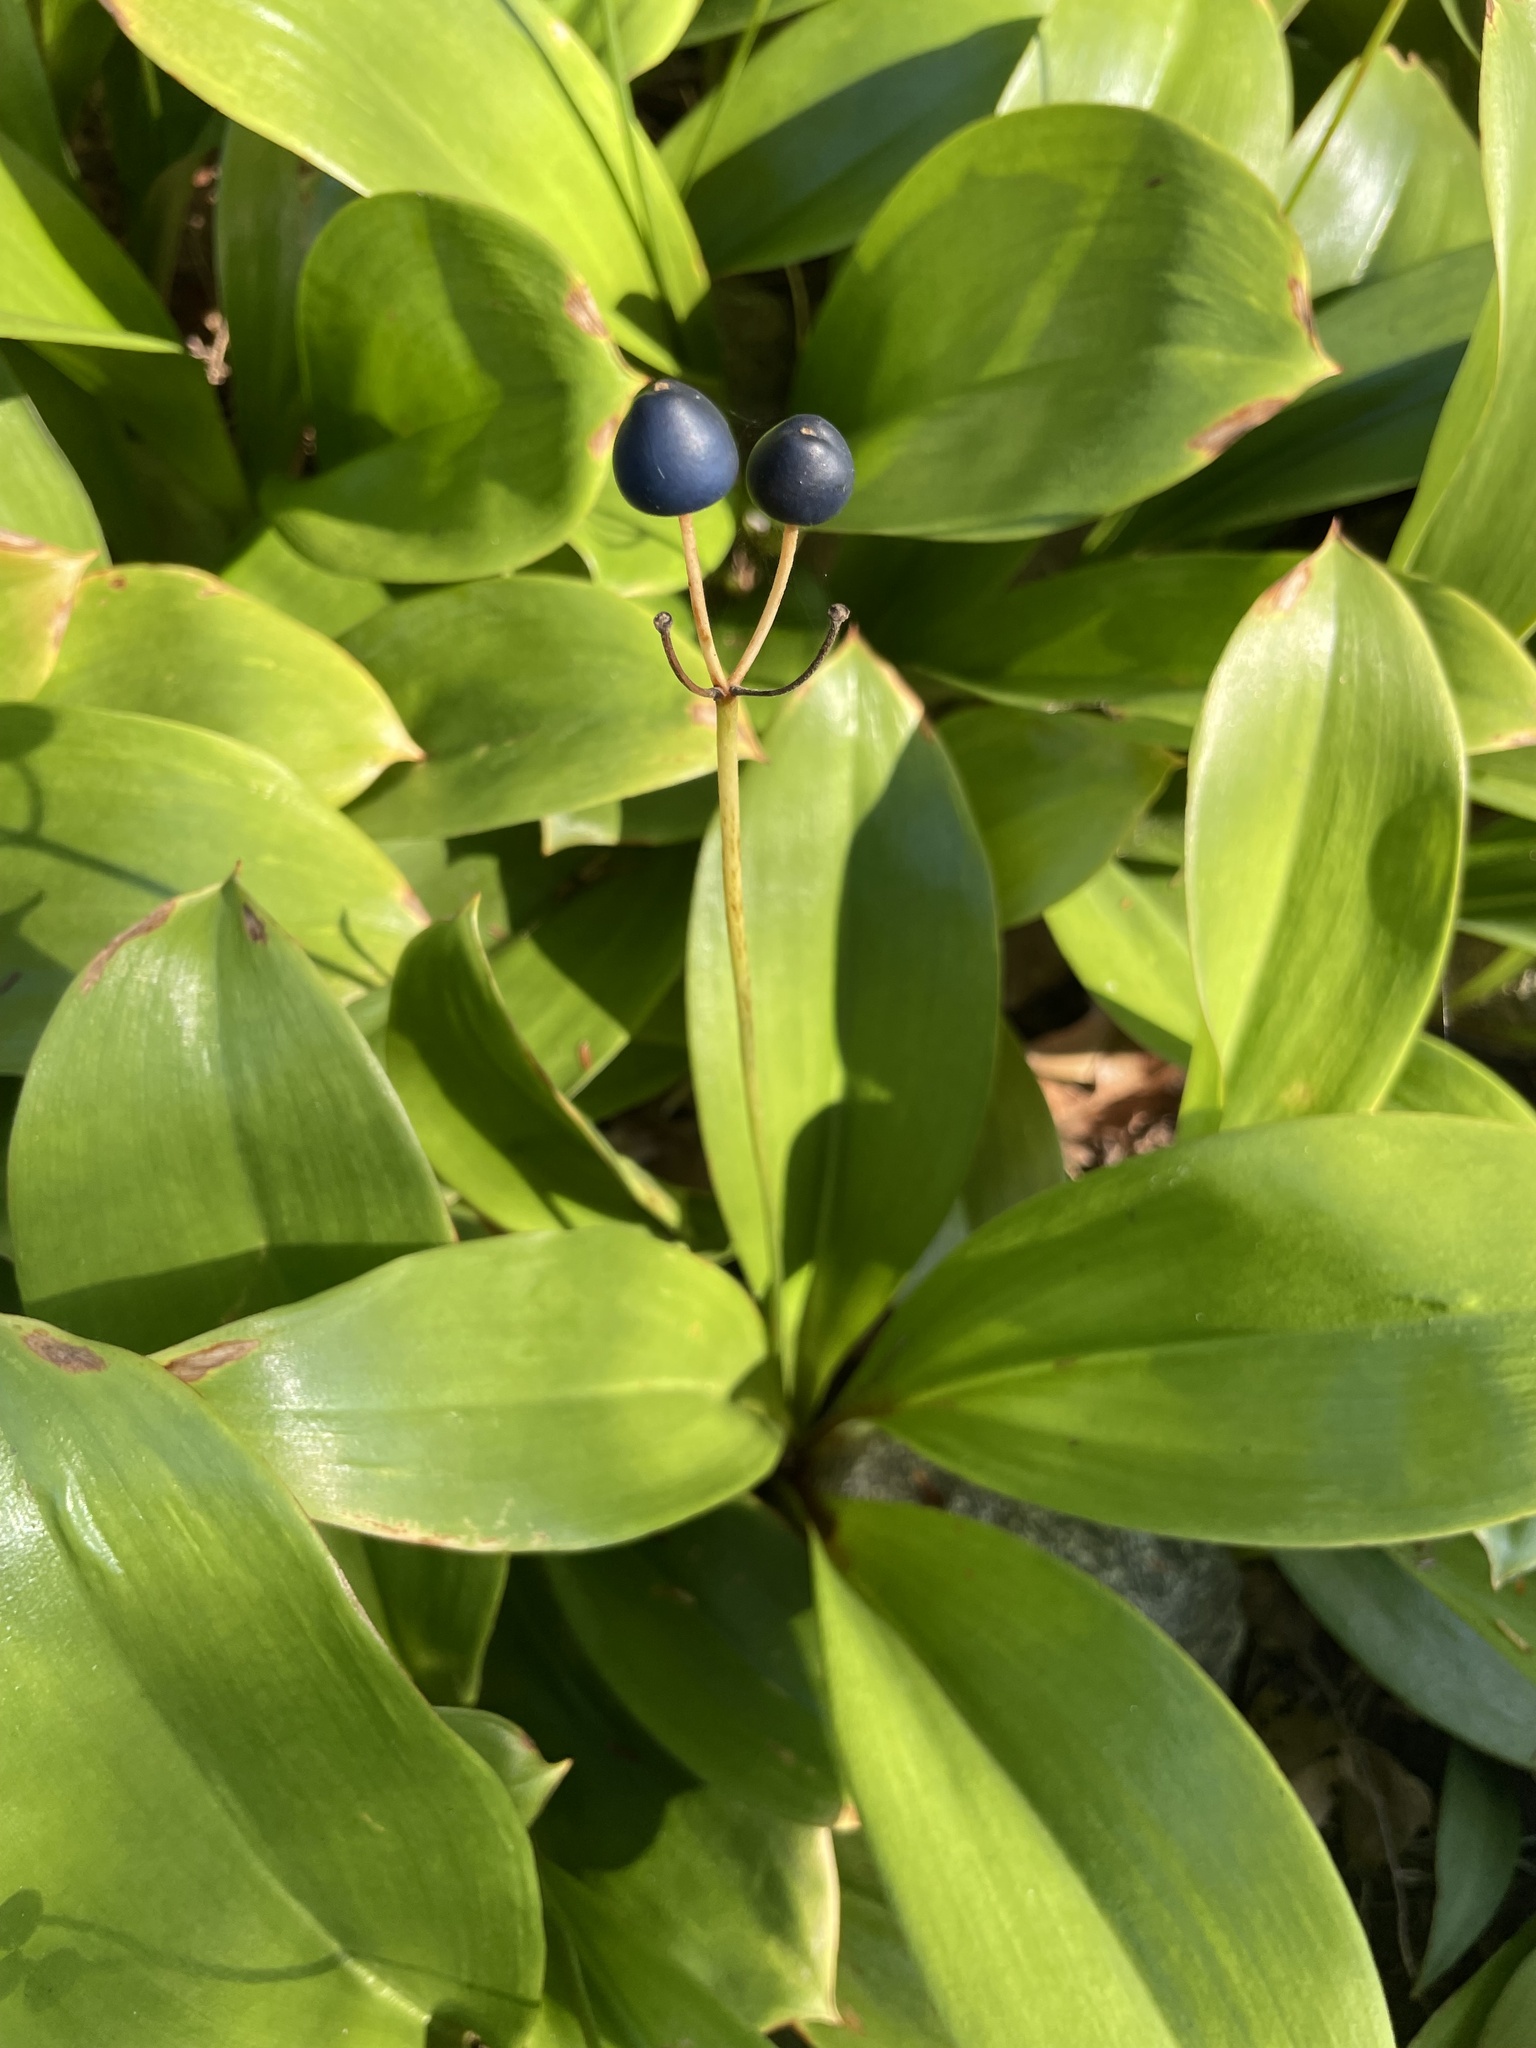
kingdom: Plantae
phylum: Tracheophyta
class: Liliopsida
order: Liliales
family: Liliaceae
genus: Clintonia
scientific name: Clintonia borealis
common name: Yellow clintonia
